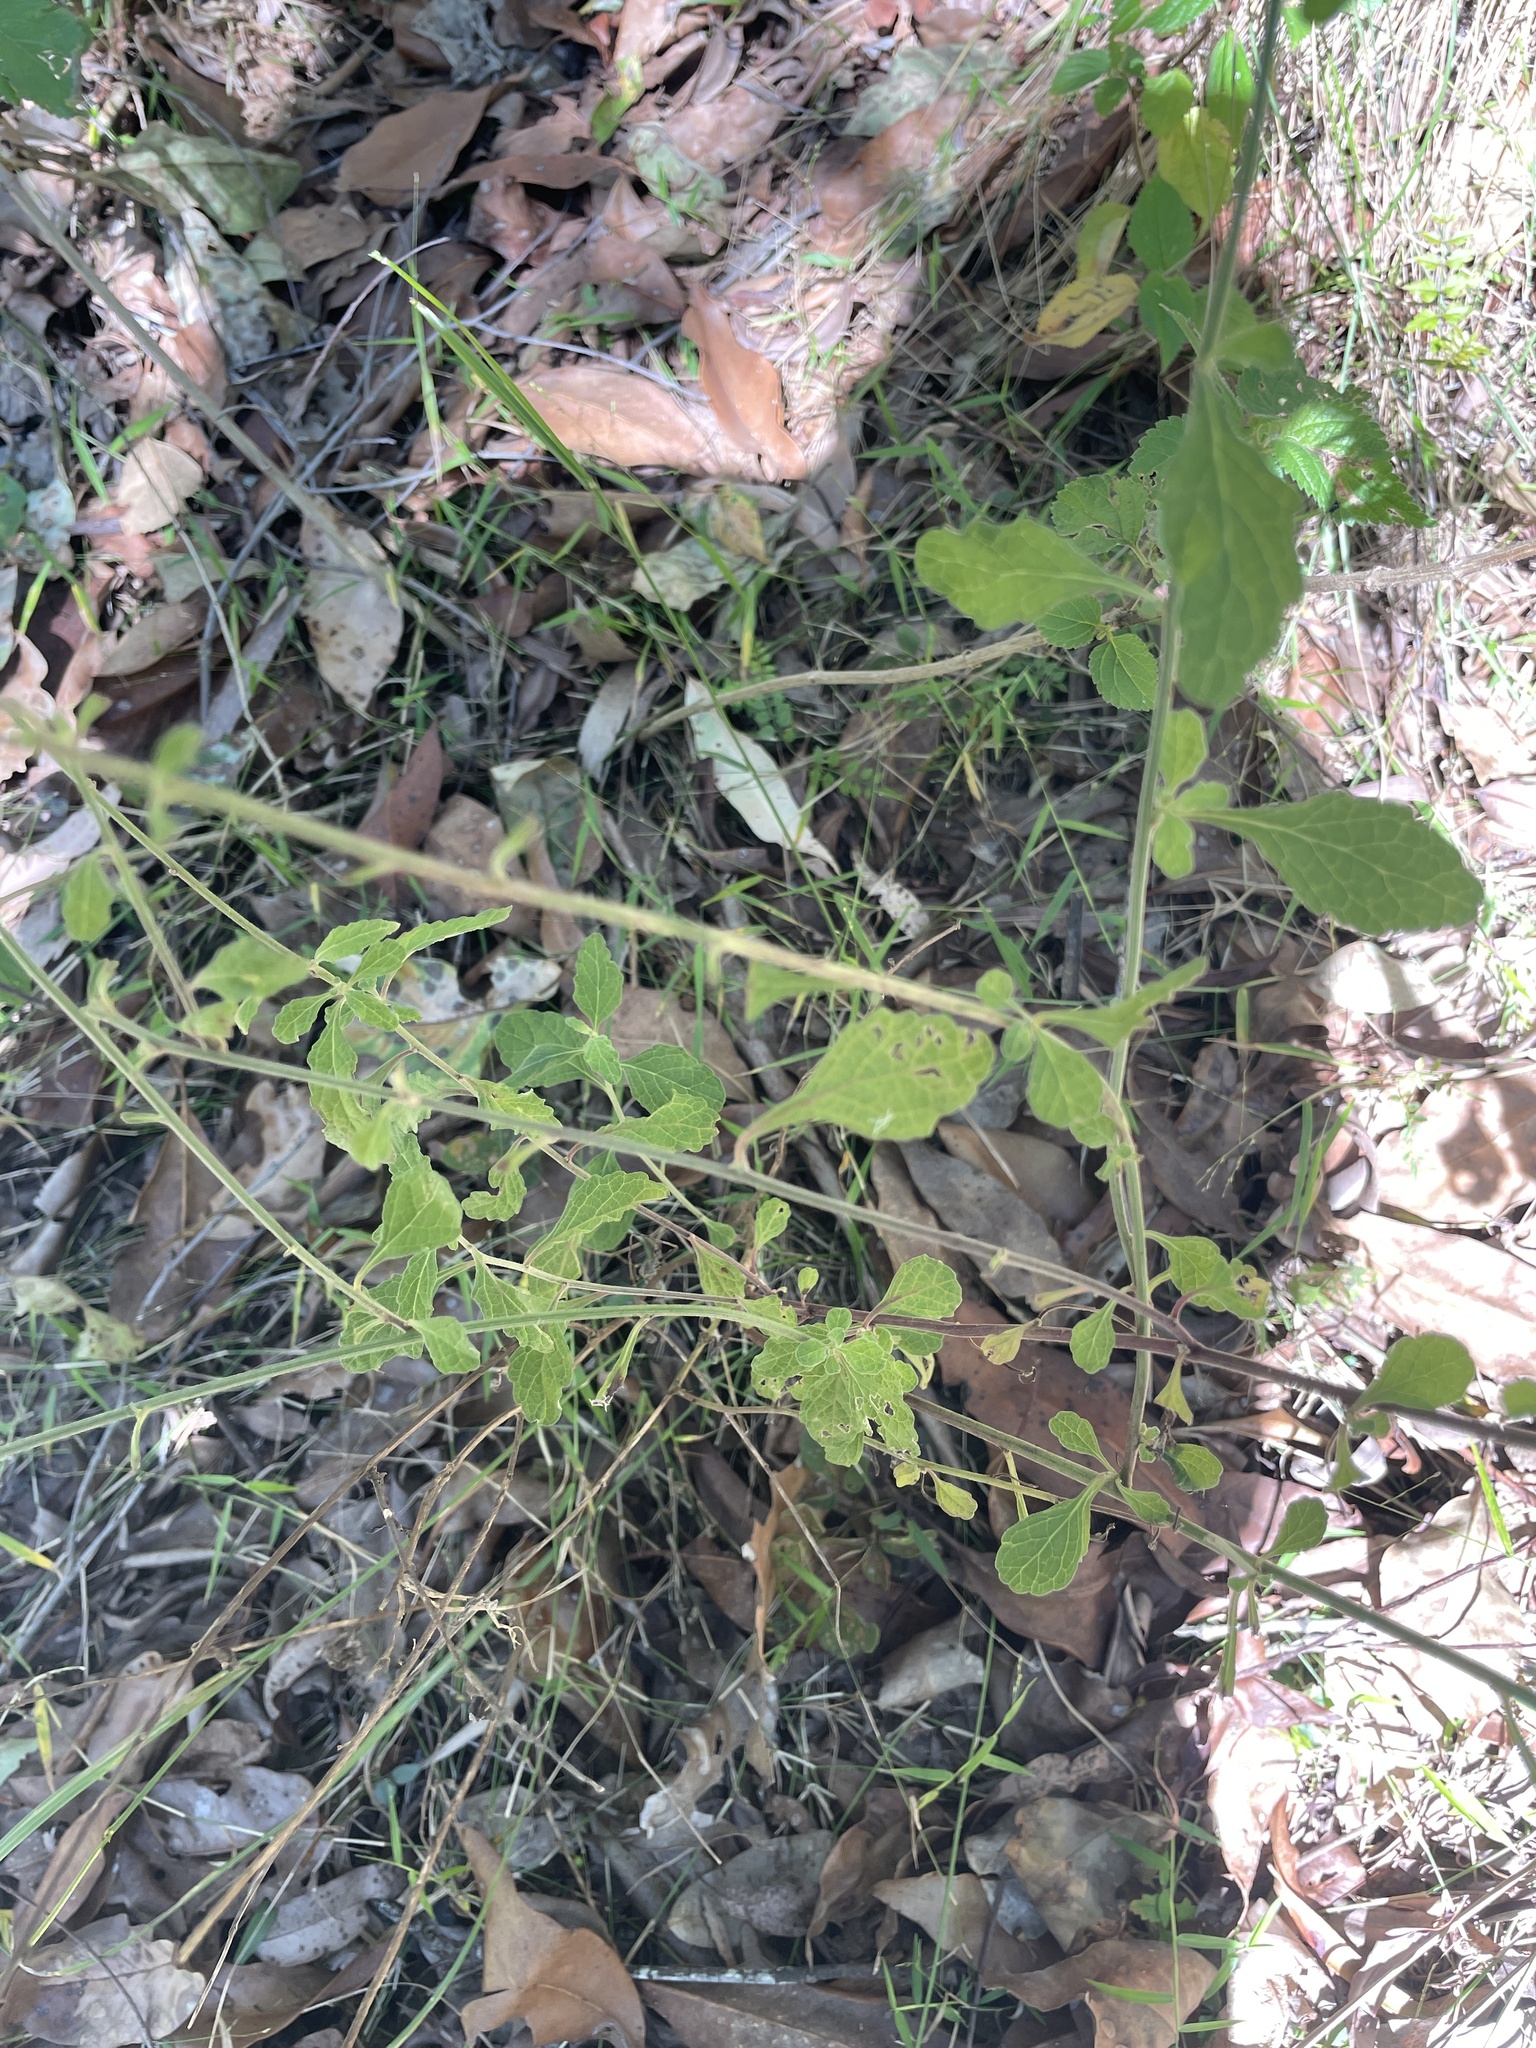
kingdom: Plantae
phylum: Tracheophyta
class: Magnoliopsida
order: Asterales
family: Asteraceae
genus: Cyanthillium
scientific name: Cyanthillium cinereum
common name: Little ironweed
